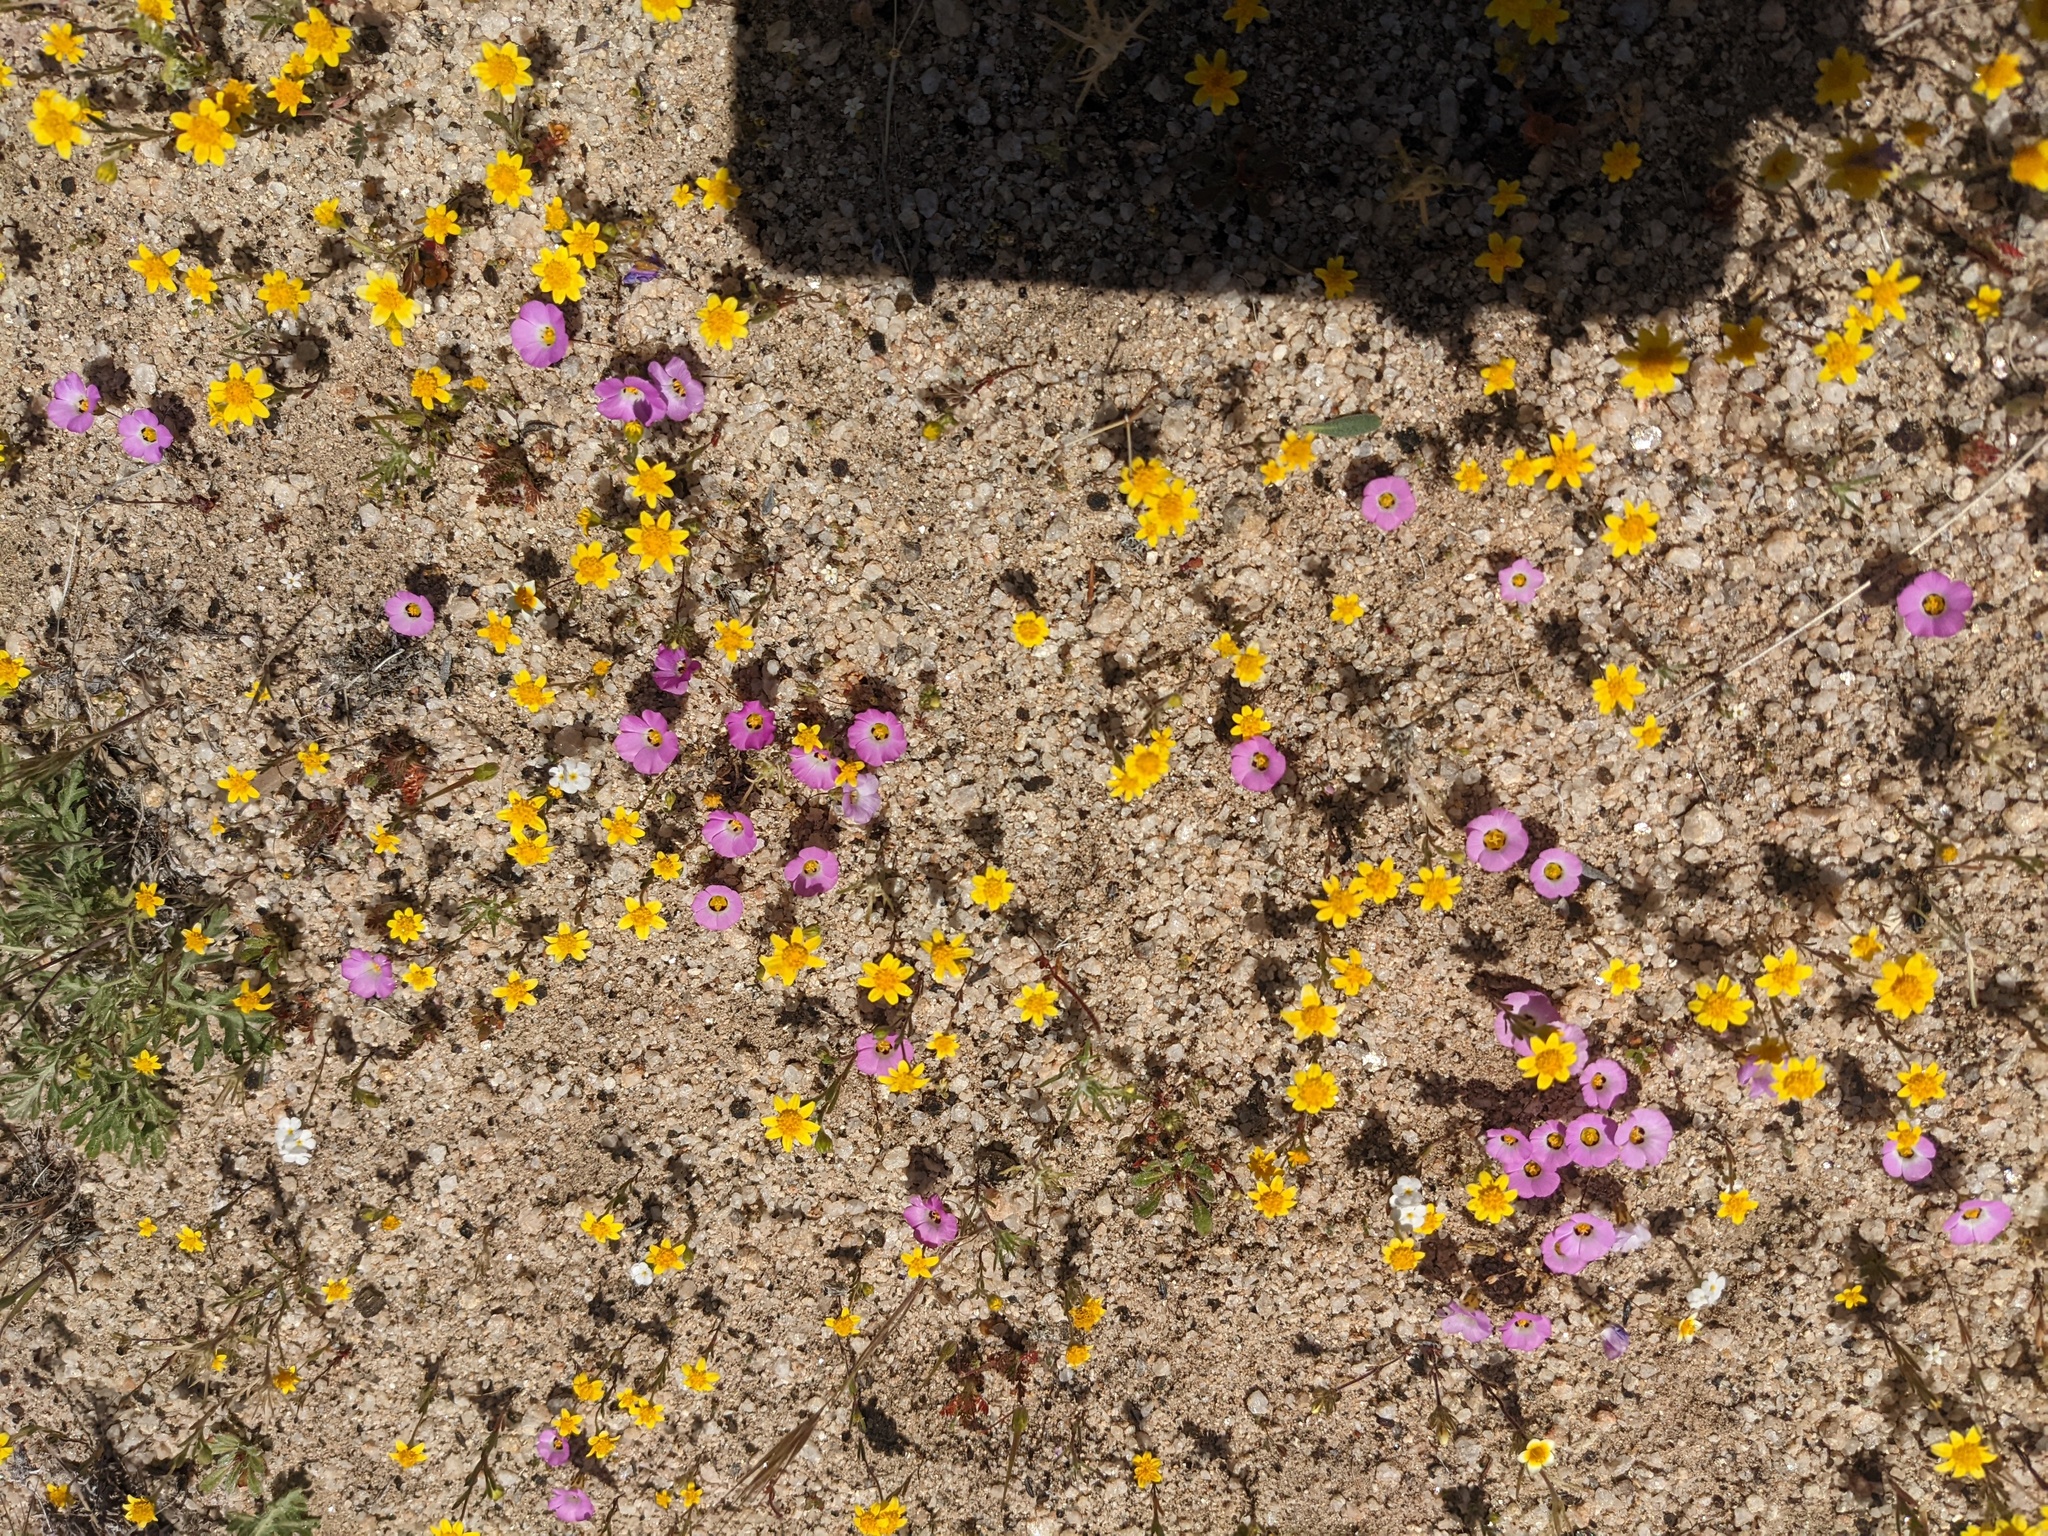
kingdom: Plantae
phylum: Tracheophyta
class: Magnoliopsida
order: Ericales
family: Polemoniaceae
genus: Linanthus
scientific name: Linanthus bellus
